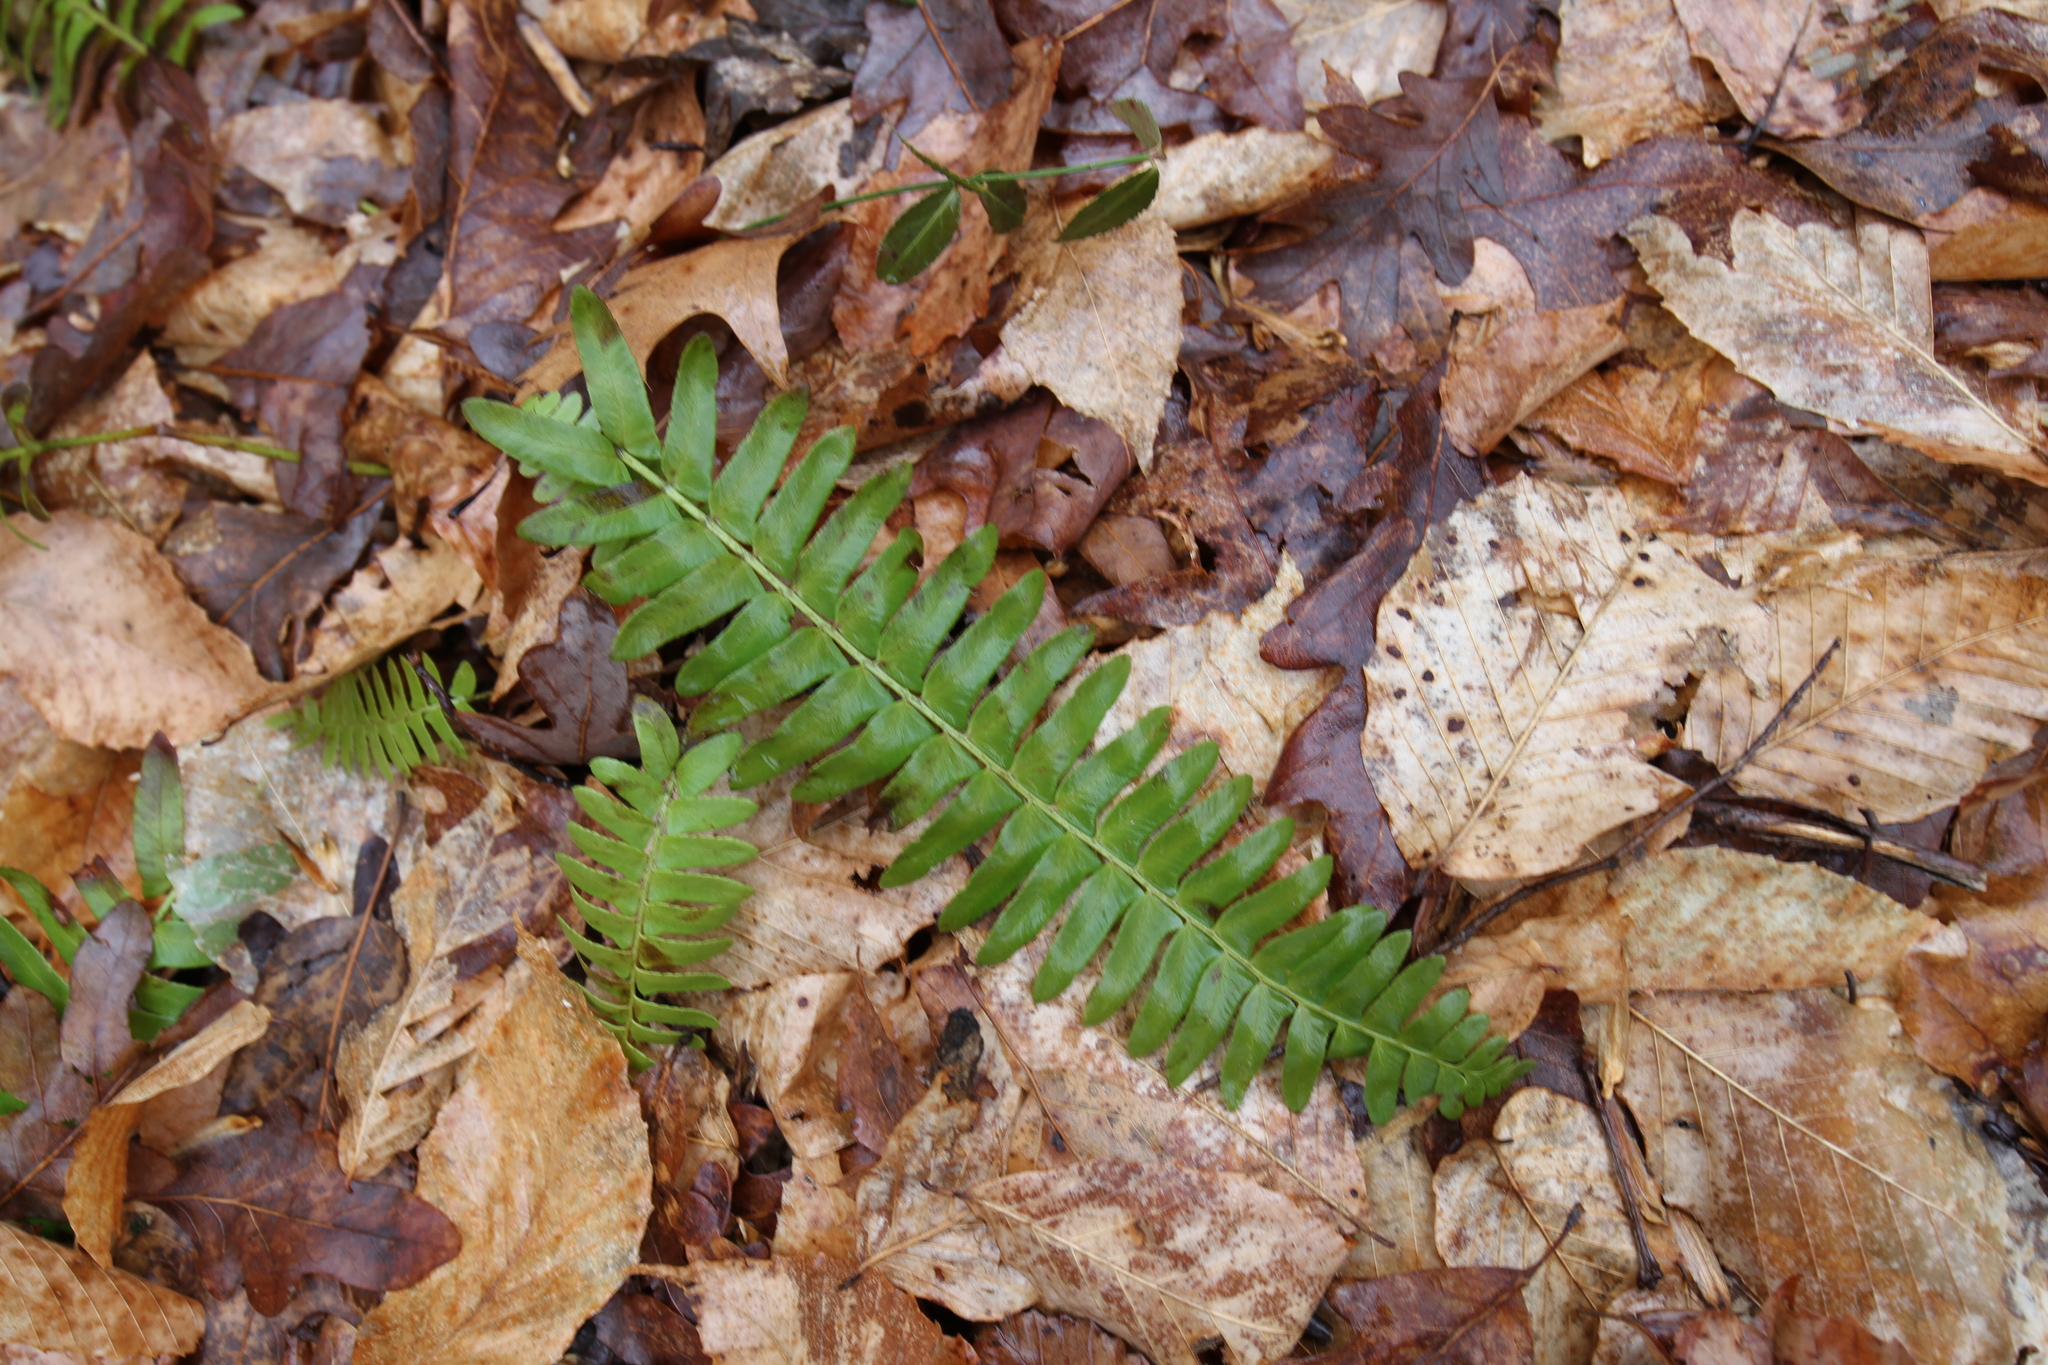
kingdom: Plantae
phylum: Tracheophyta
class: Polypodiopsida
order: Polypodiales
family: Dryopteridaceae
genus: Polystichum
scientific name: Polystichum acrostichoides
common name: Christmas fern
